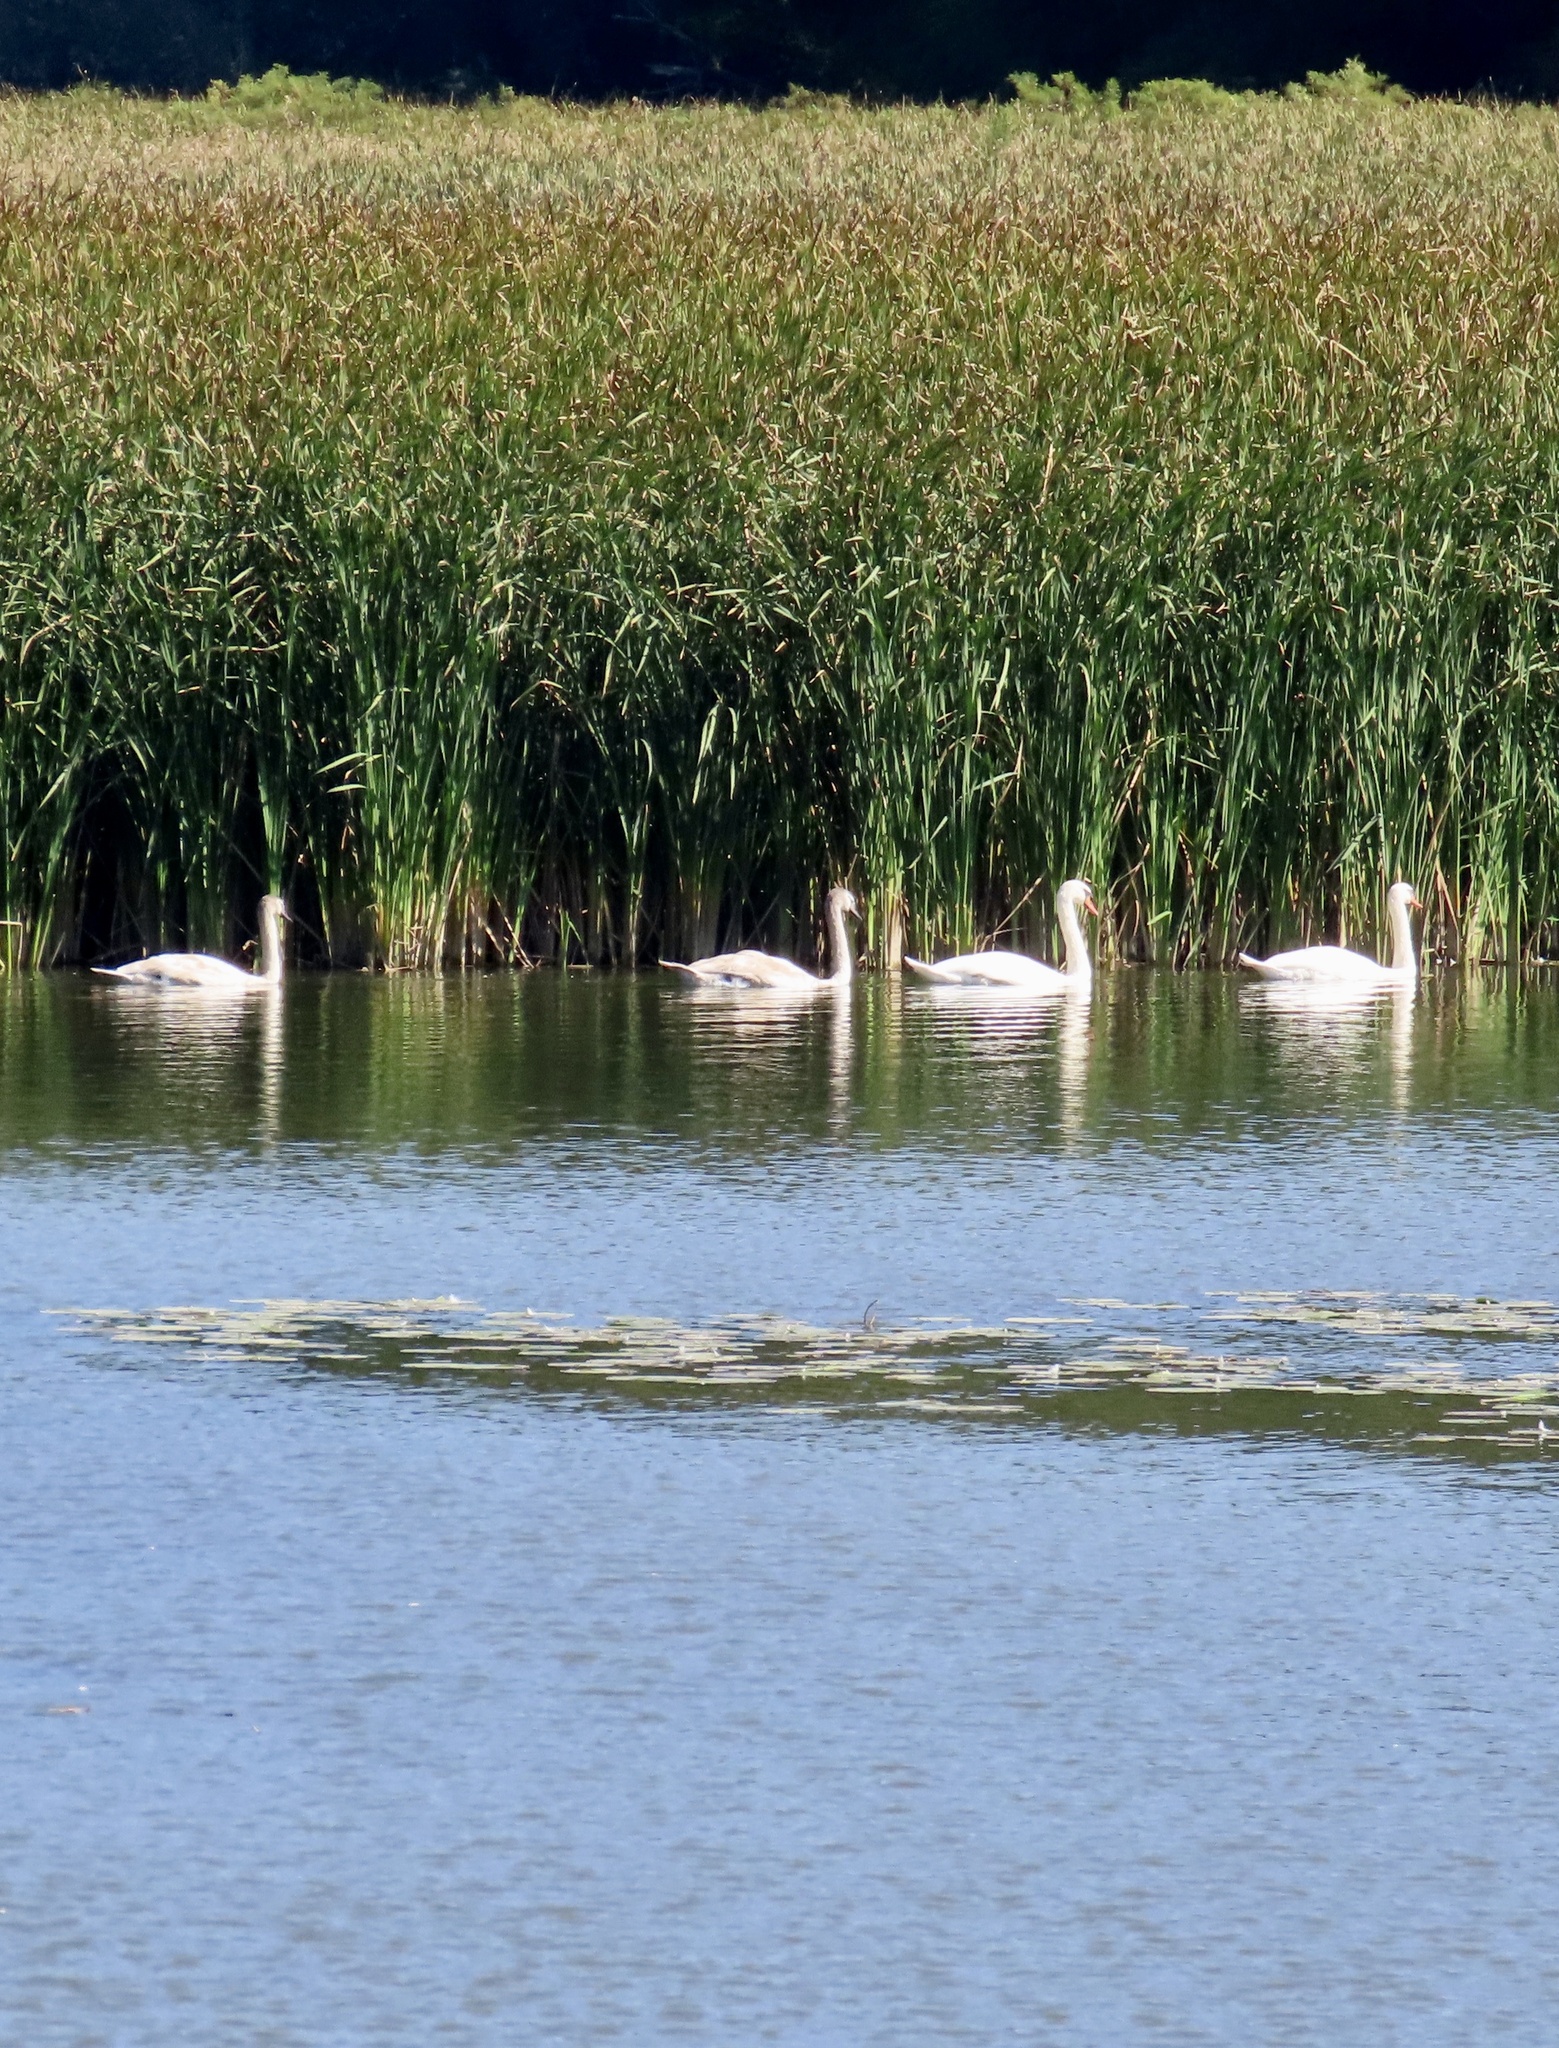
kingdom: Animalia
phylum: Chordata
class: Aves
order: Anseriformes
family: Anatidae
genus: Cygnus
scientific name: Cygnus olor
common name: Mute swan
